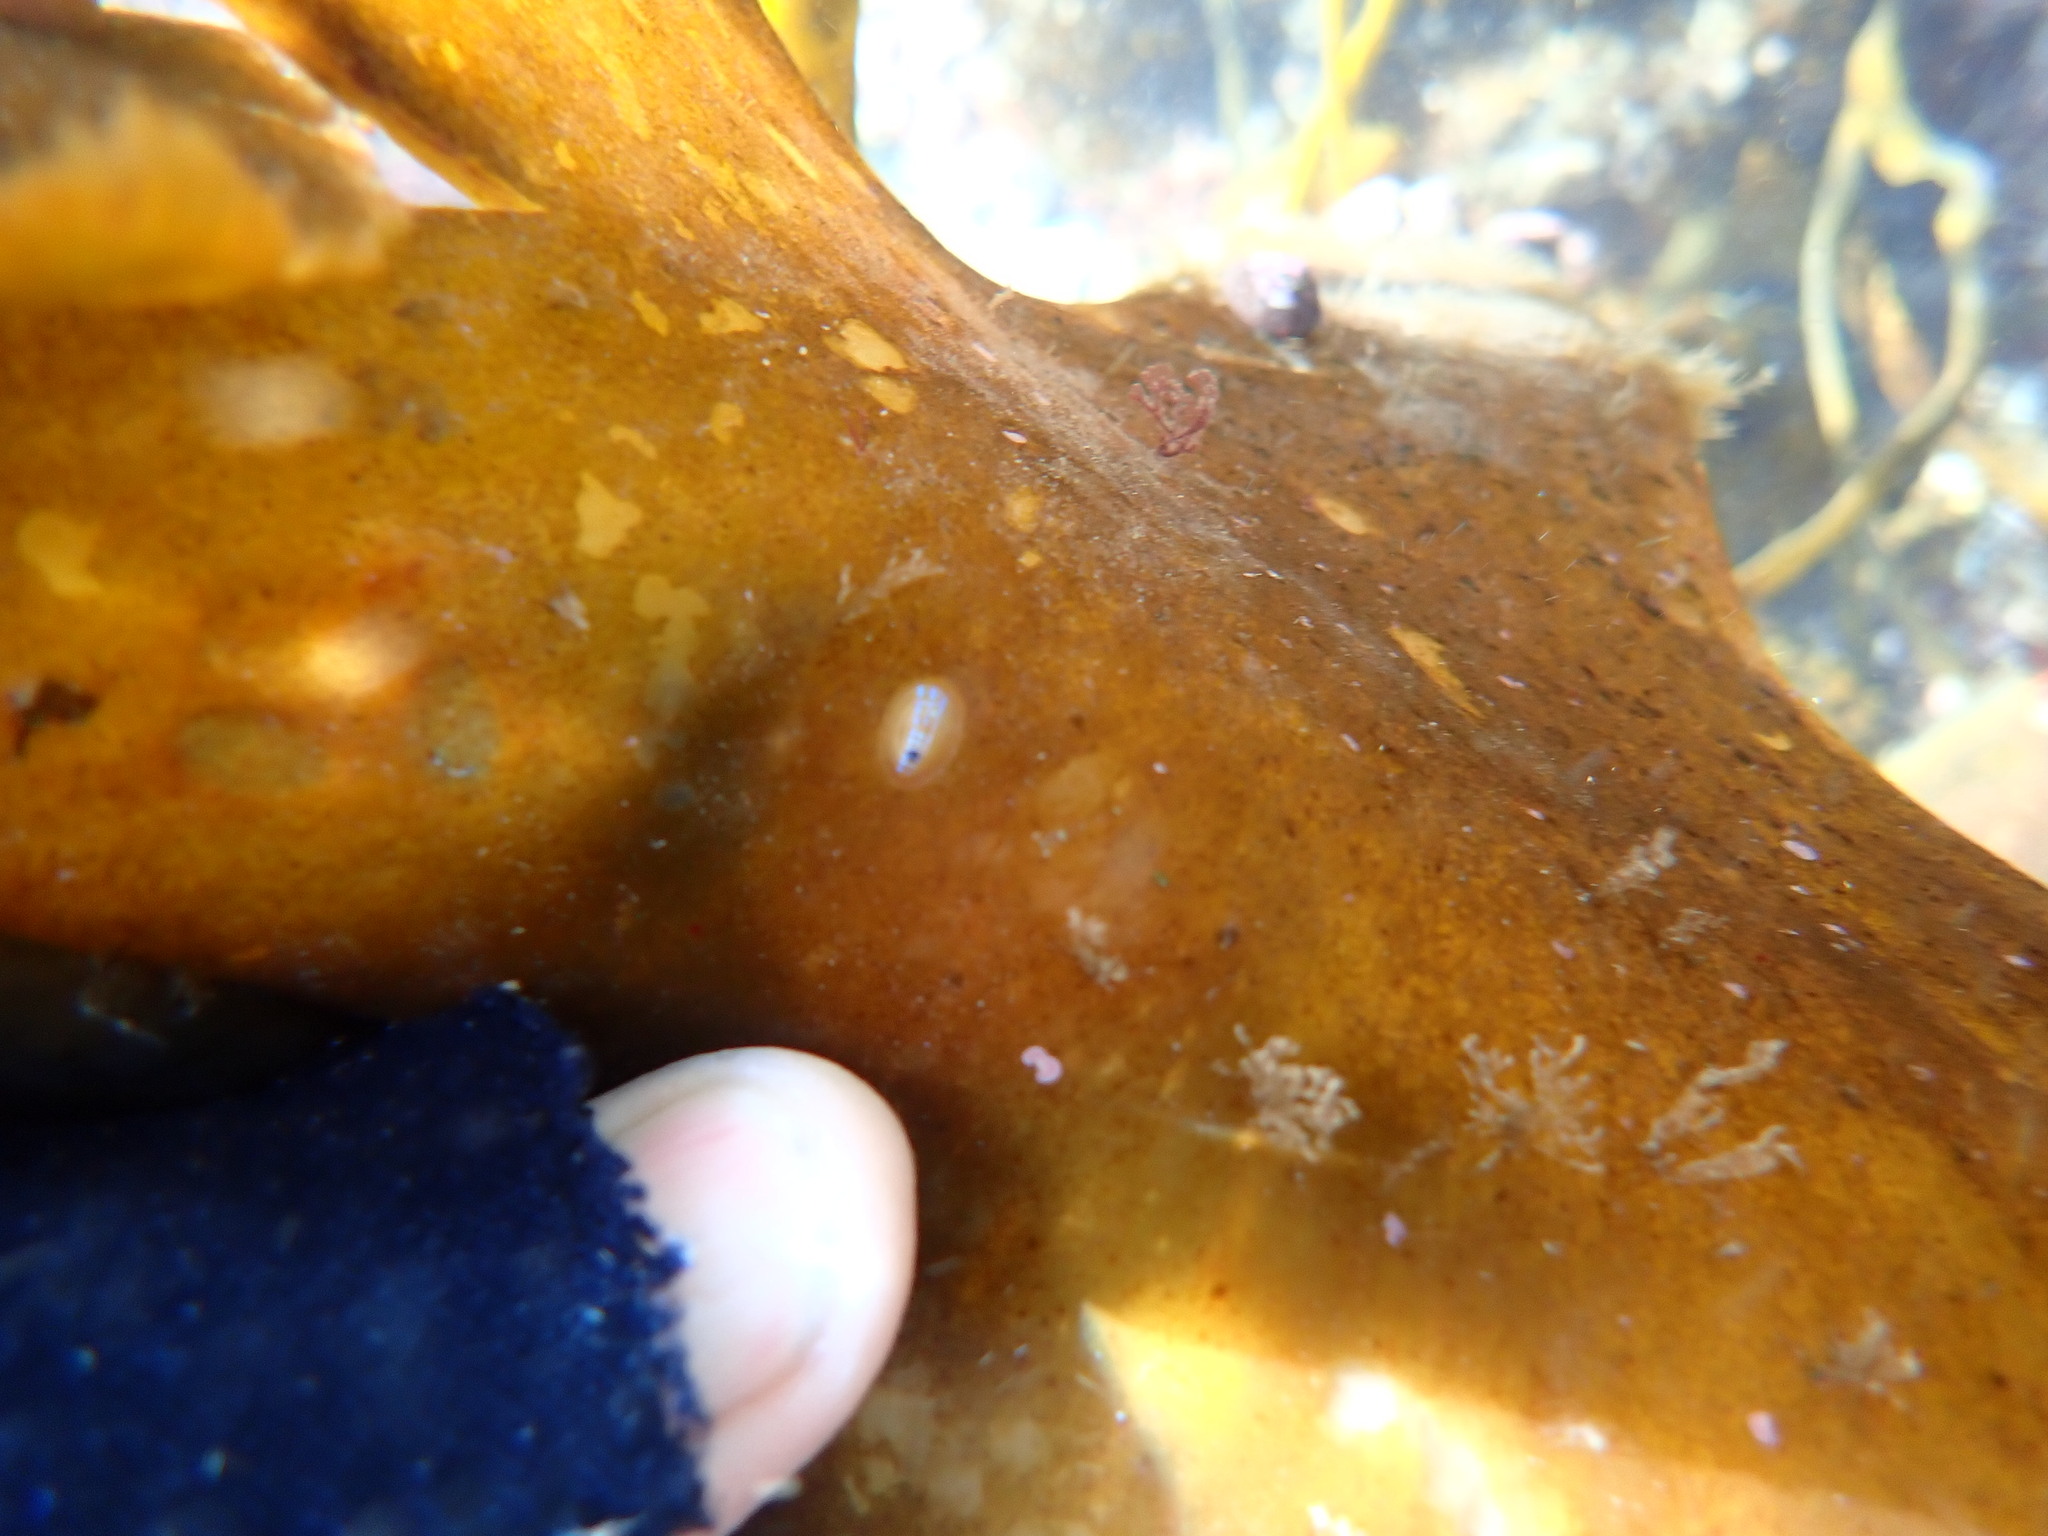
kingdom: Animalia
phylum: Mollusca
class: Gastropoda
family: Patellidae
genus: Patella
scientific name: Patella pellucida
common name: Blue-rayed limpet
